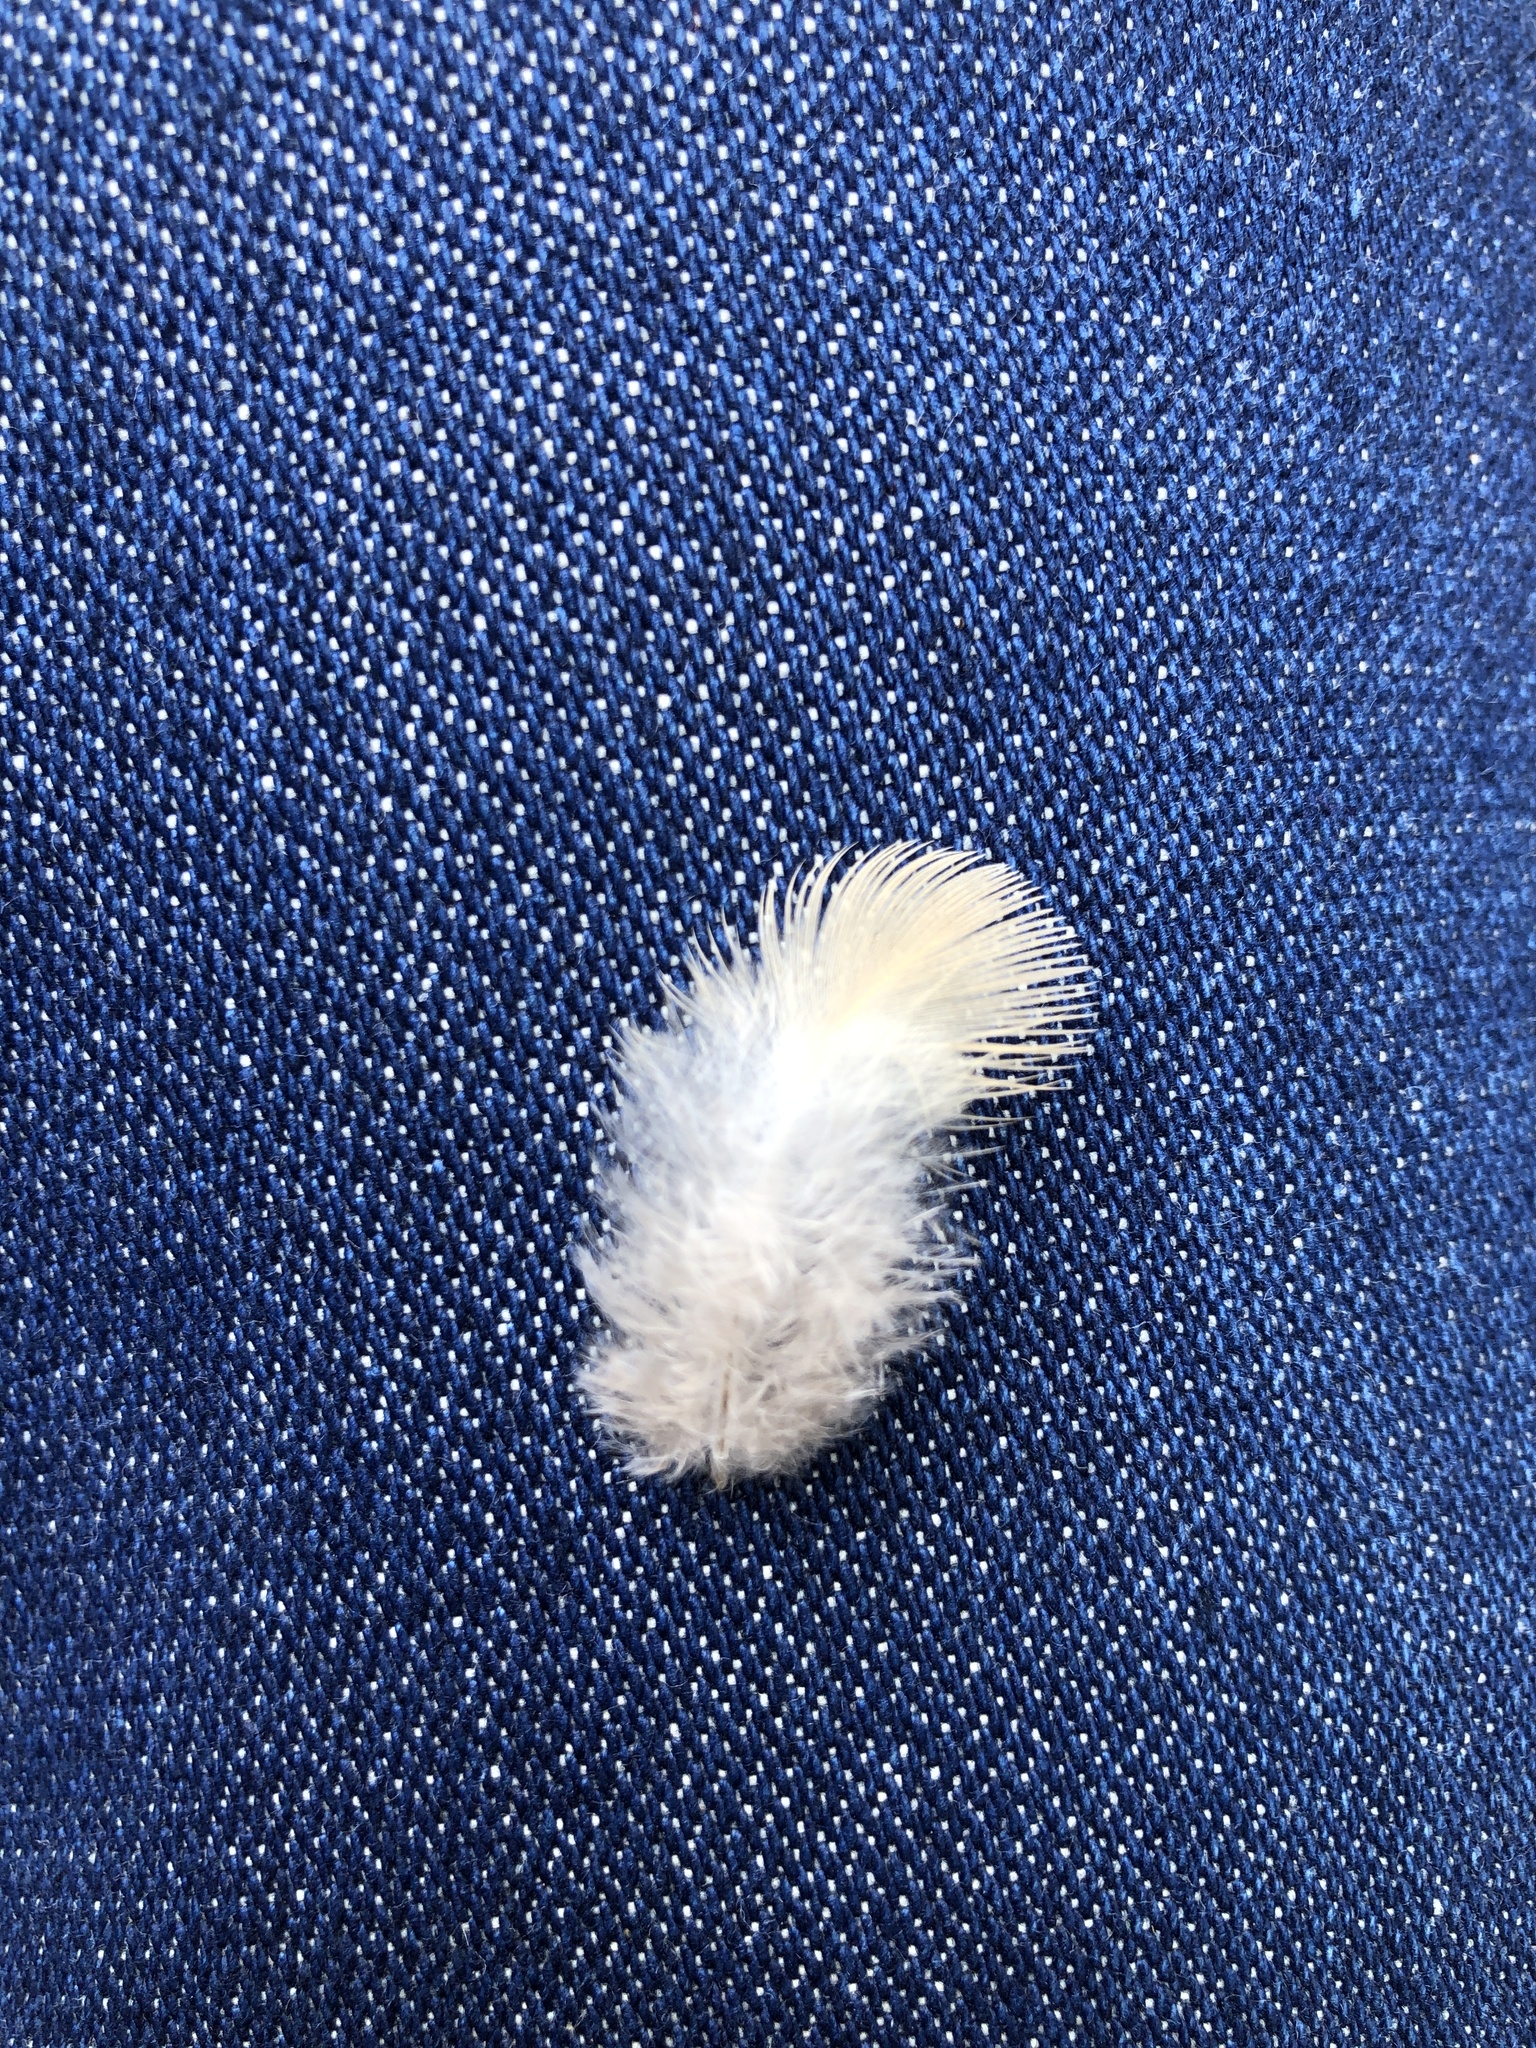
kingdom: Animalia
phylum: Chordata
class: Aves
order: Columbiformes
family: Columbidae
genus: Zenaida
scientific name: Zenaida macroura
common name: Mourning dove
